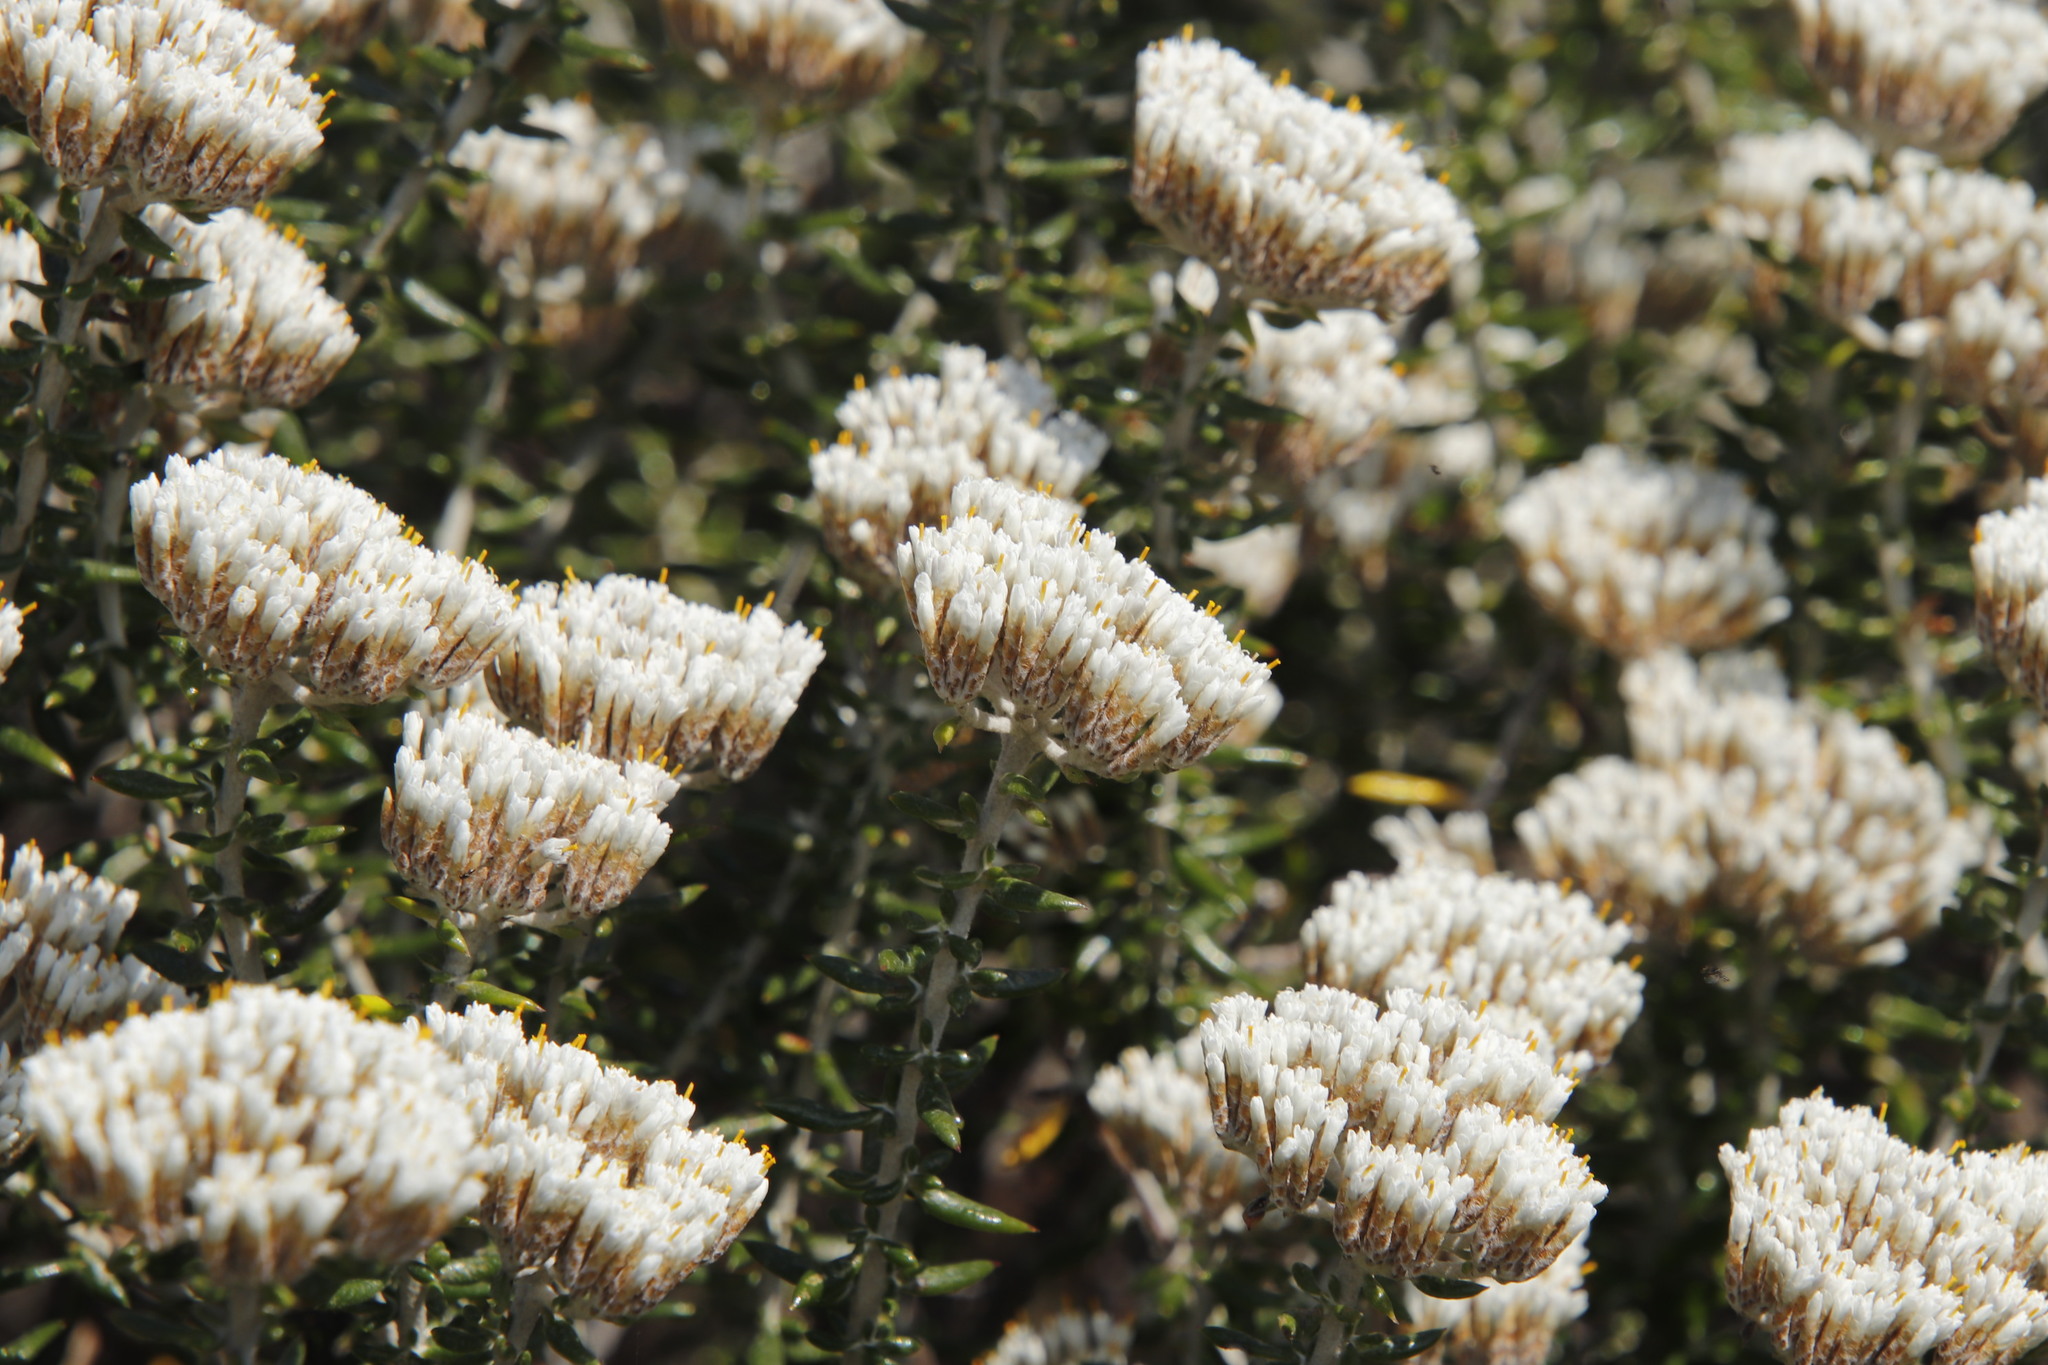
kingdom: Plantae
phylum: Tracheophyta
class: Magnoliopsida
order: Asterales
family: Asteraceae
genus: Metalasia
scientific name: Metalasia densa
